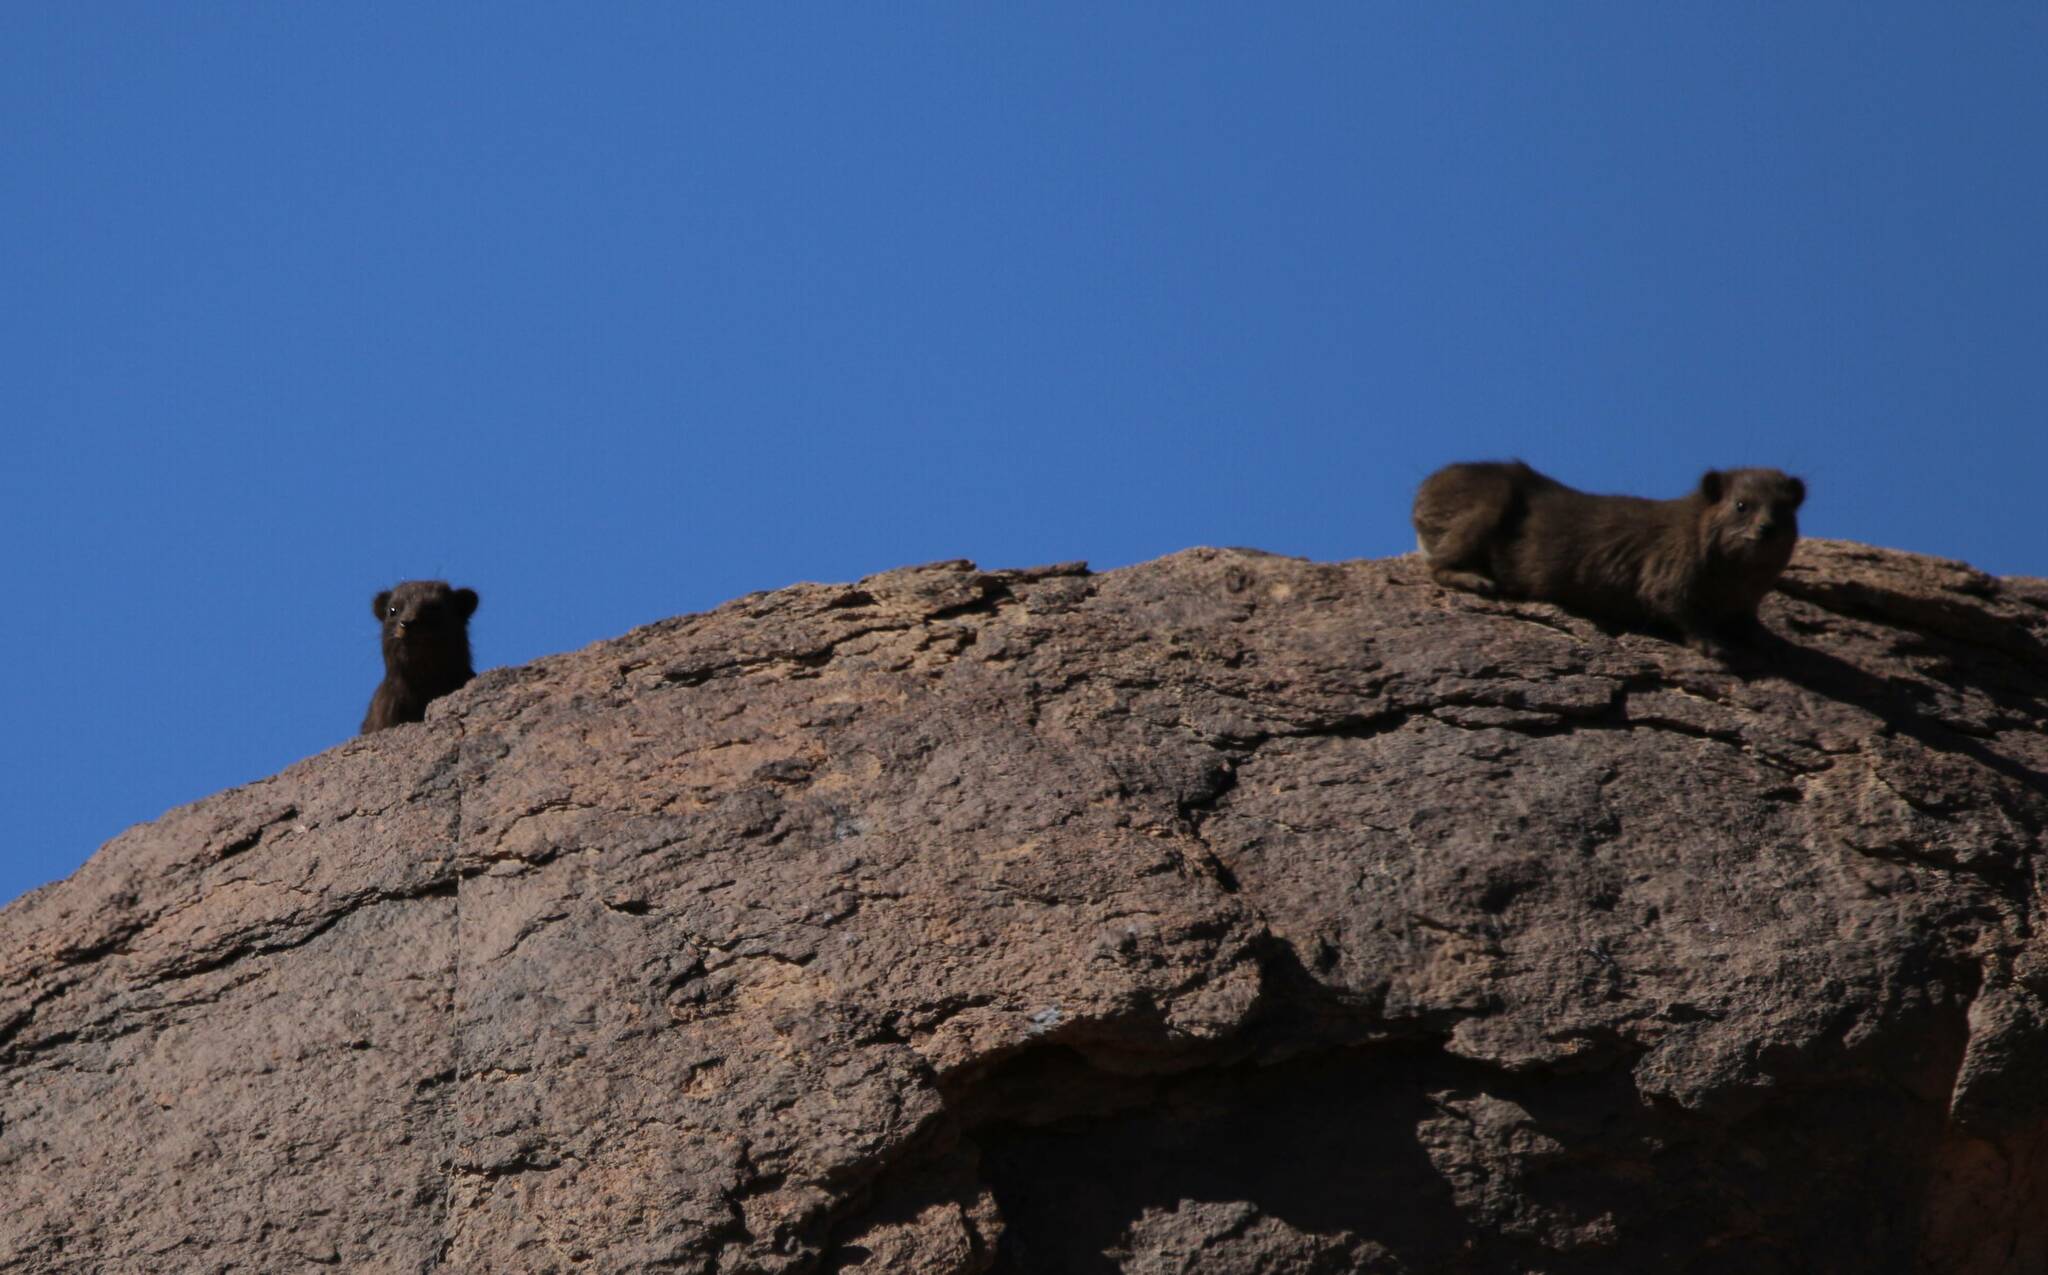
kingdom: Animalia
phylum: Chordata
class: Mammalia
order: Hyracoidea
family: Procaviidae
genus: Procavia
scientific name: Procavia capensis
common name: Rock hyrax
